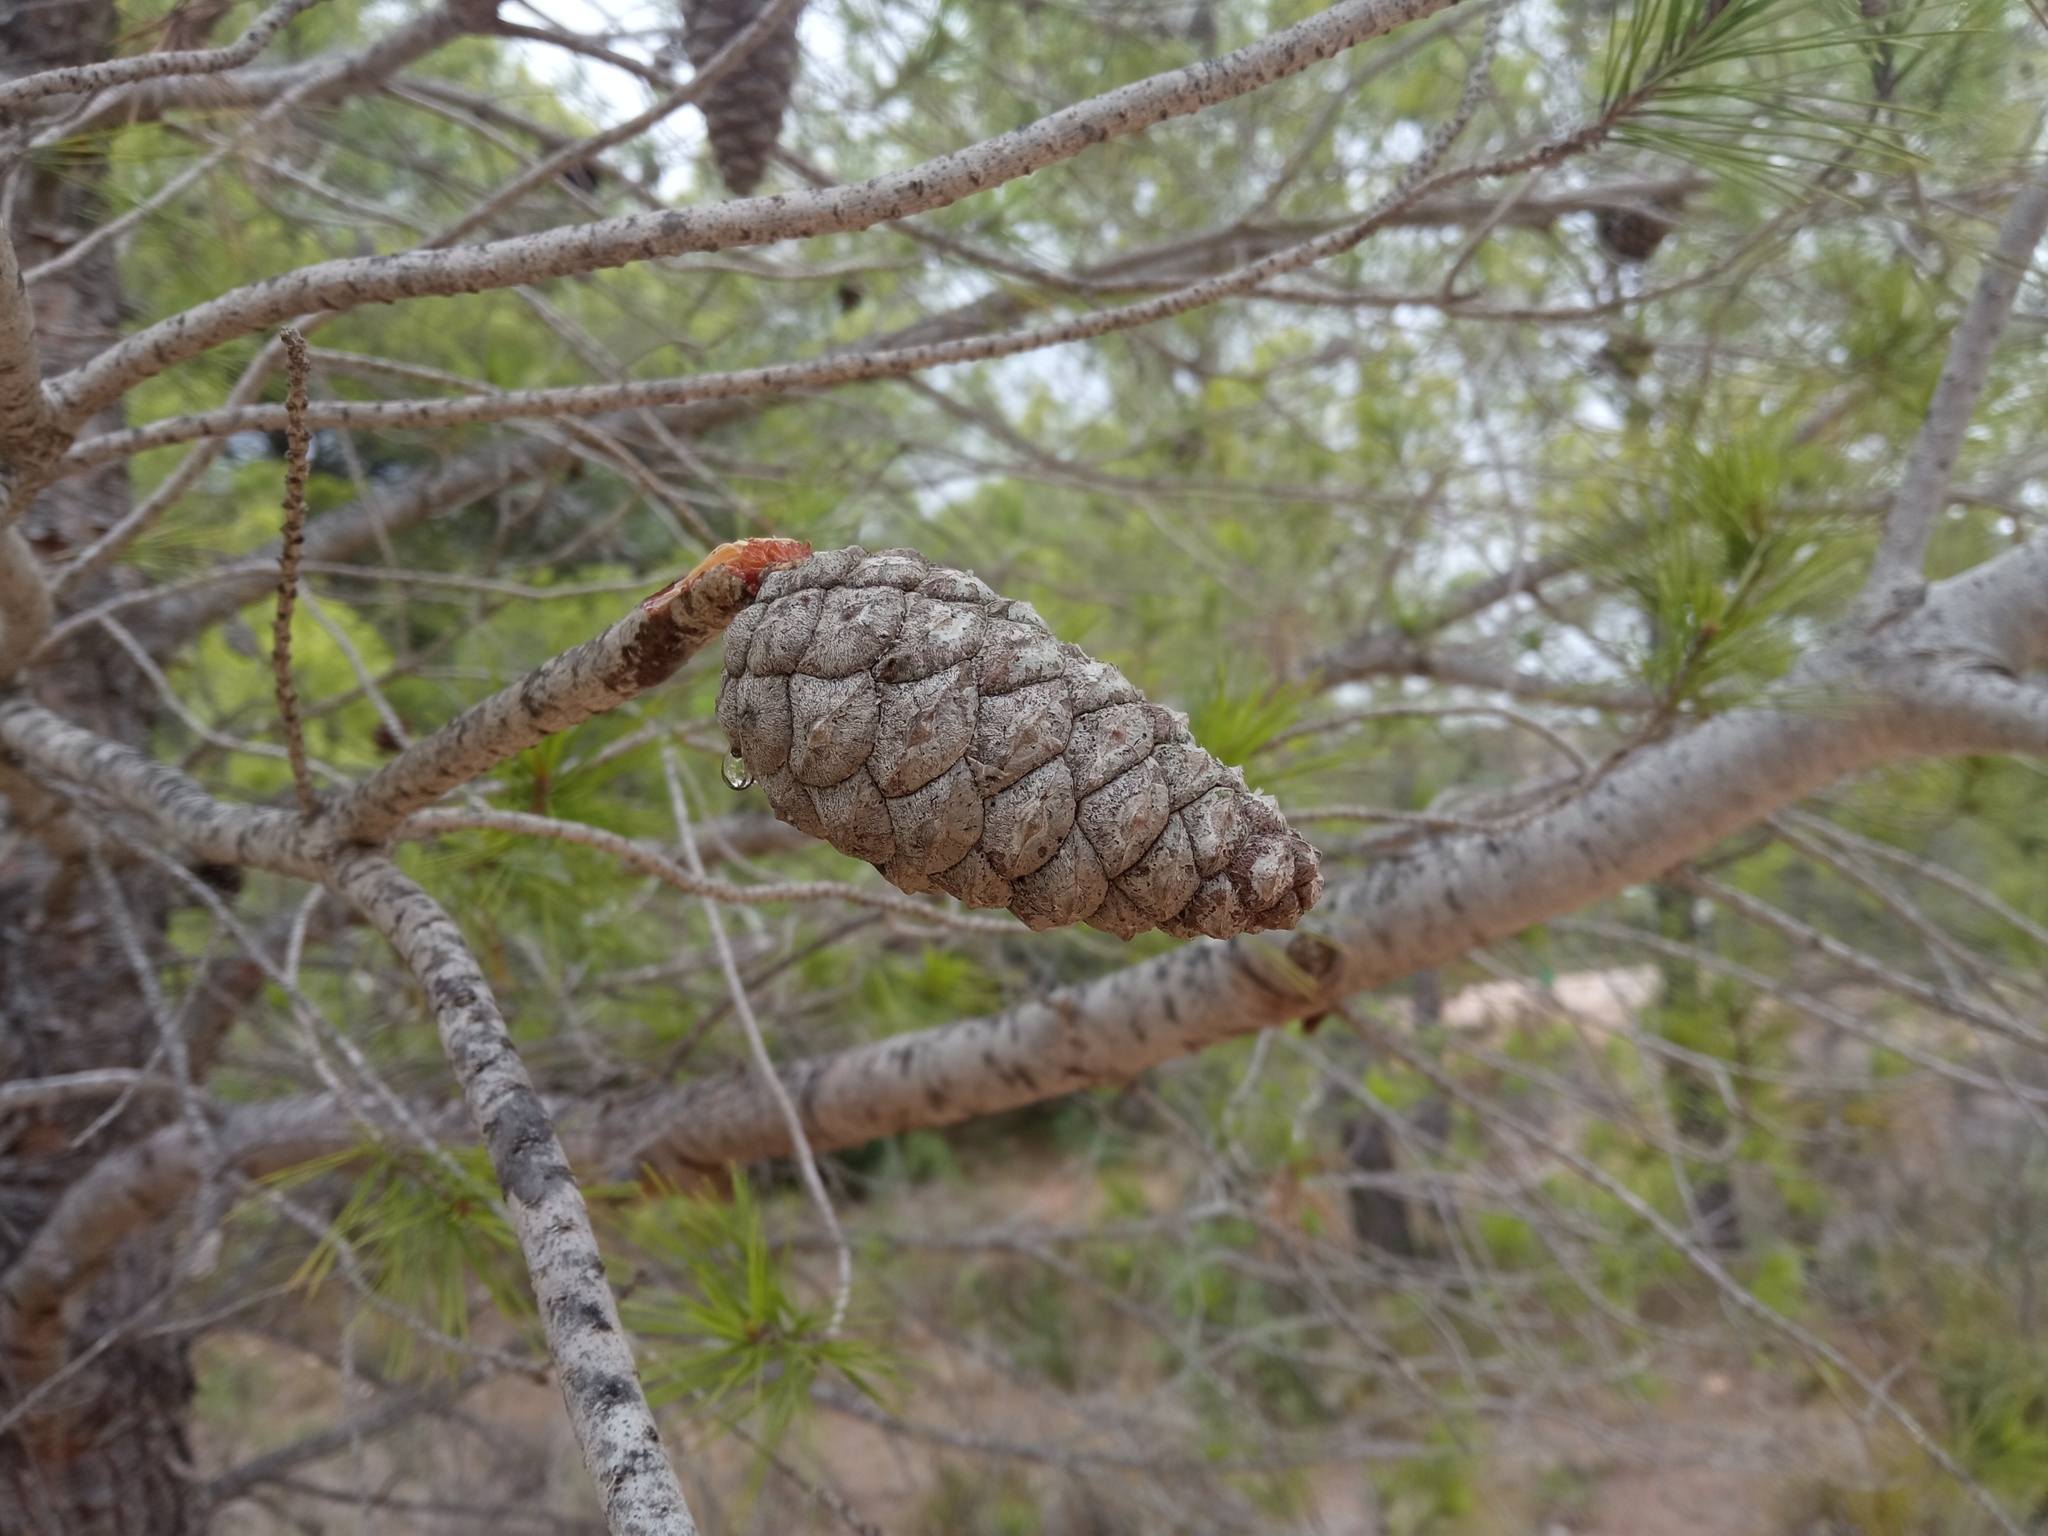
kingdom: Plantae
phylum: Tracheophyta
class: Pinopsida
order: Pinales
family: Pinaceae
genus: Pinus
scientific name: Pinus halepensis
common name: Aleppo pine
